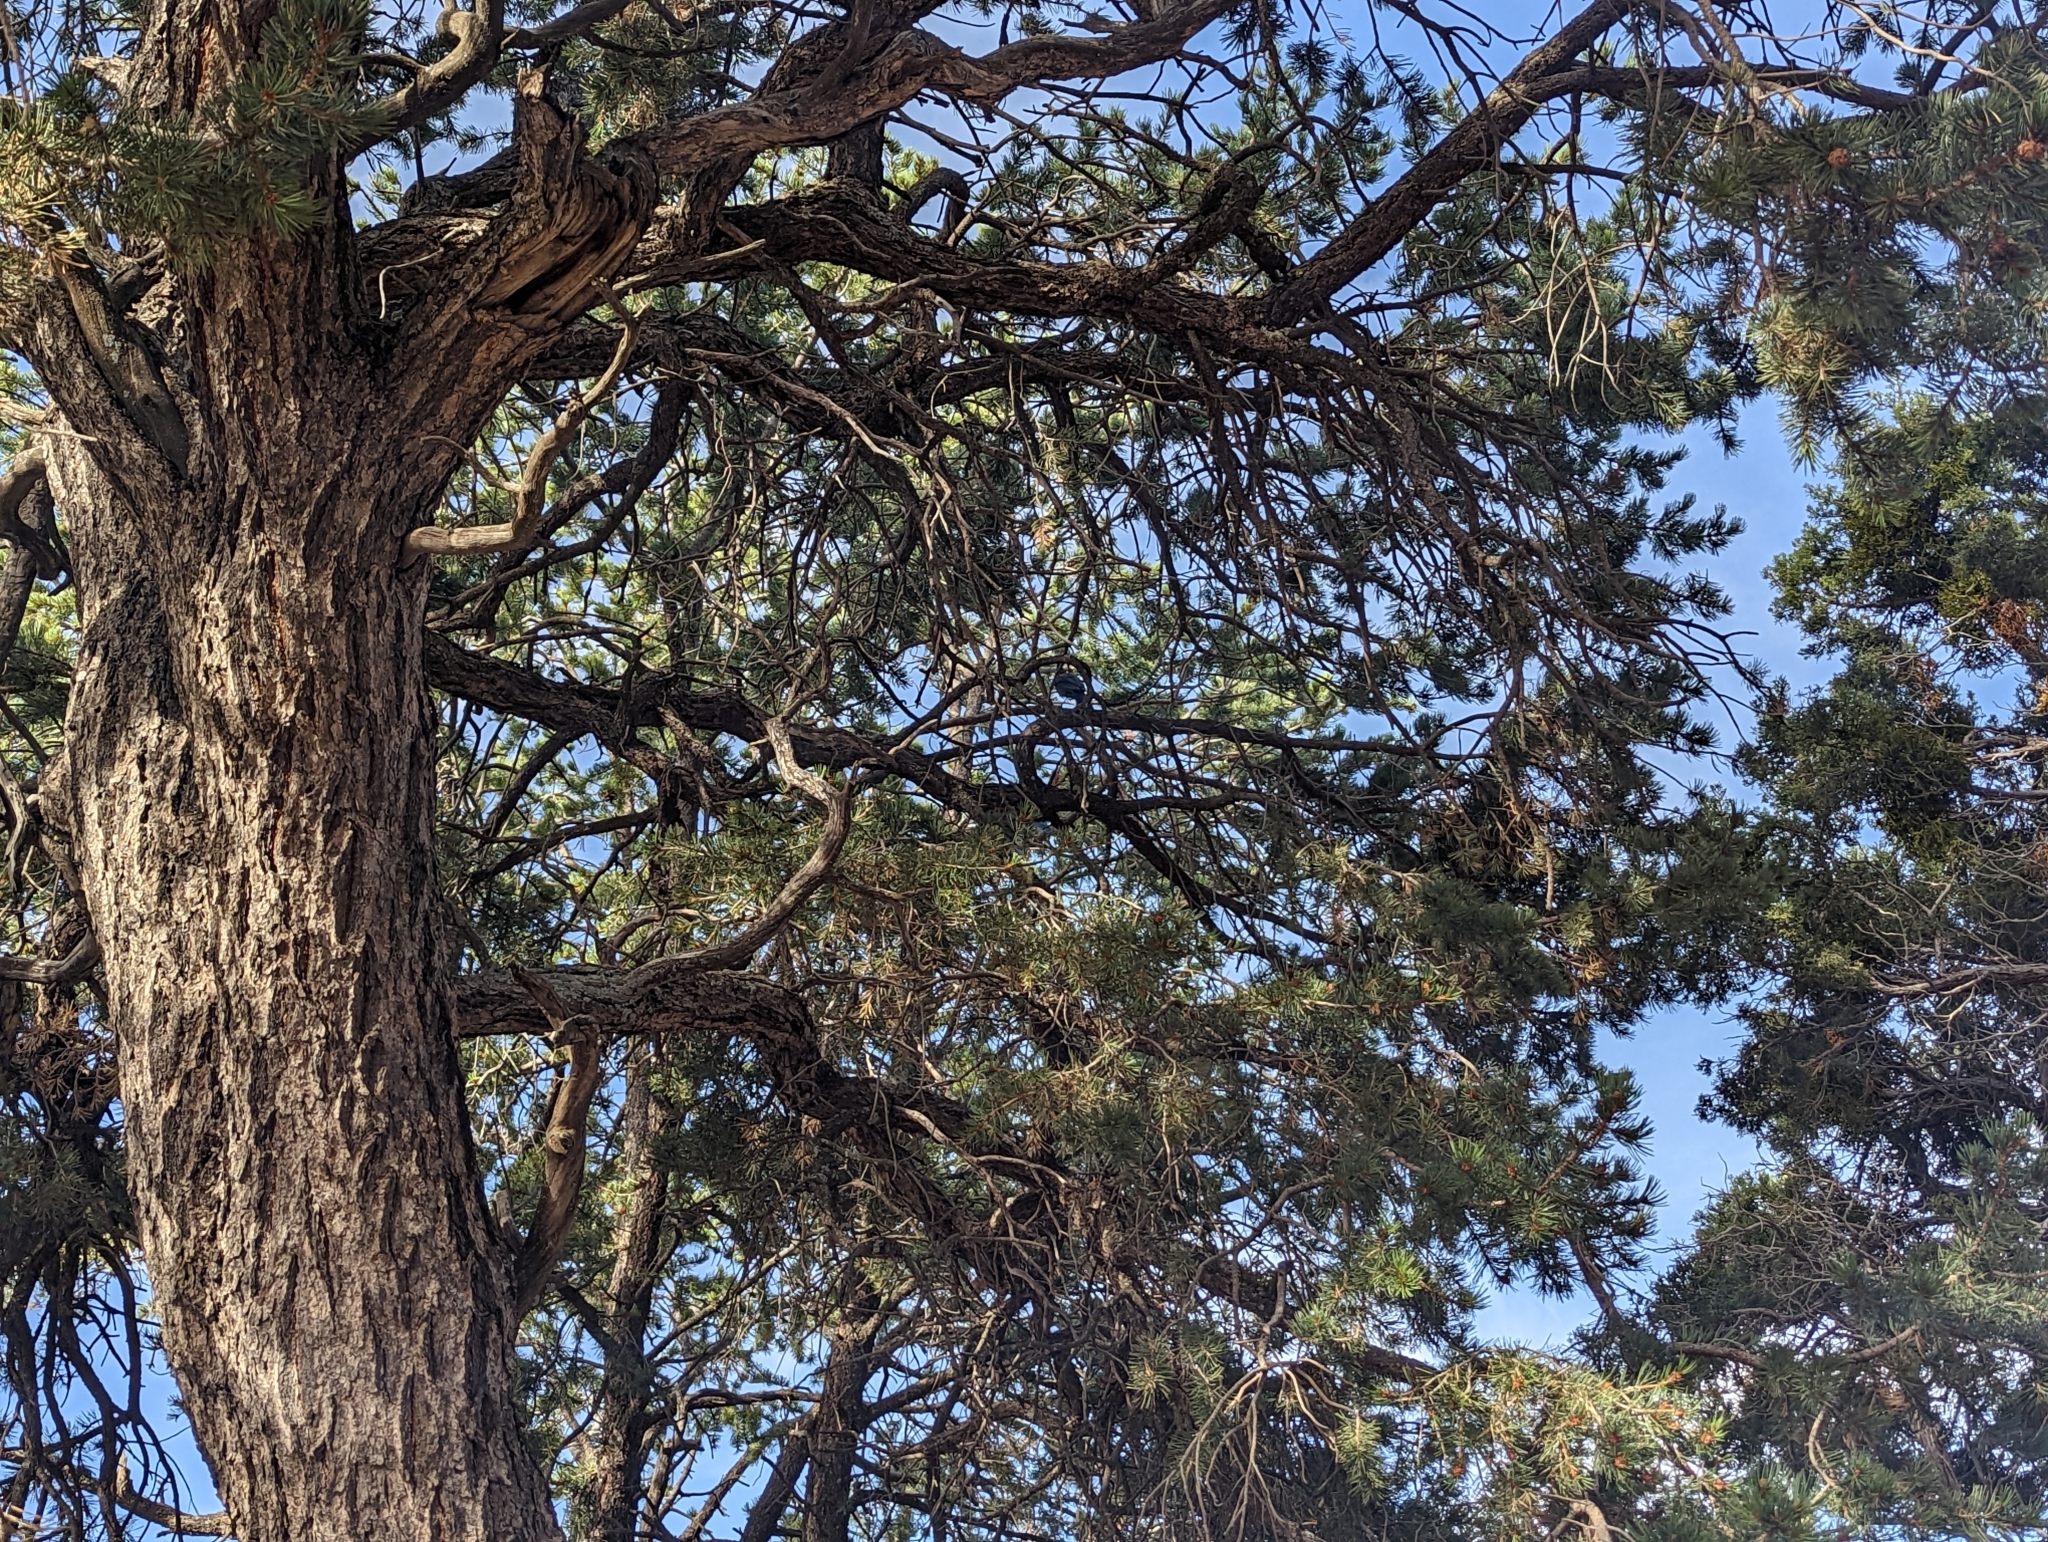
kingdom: Animalia
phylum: Chordata
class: Aves
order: Passeriformes
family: Corvidae
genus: Cyanocitta
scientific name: Cyanocitta stelleri
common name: Steller's jay
